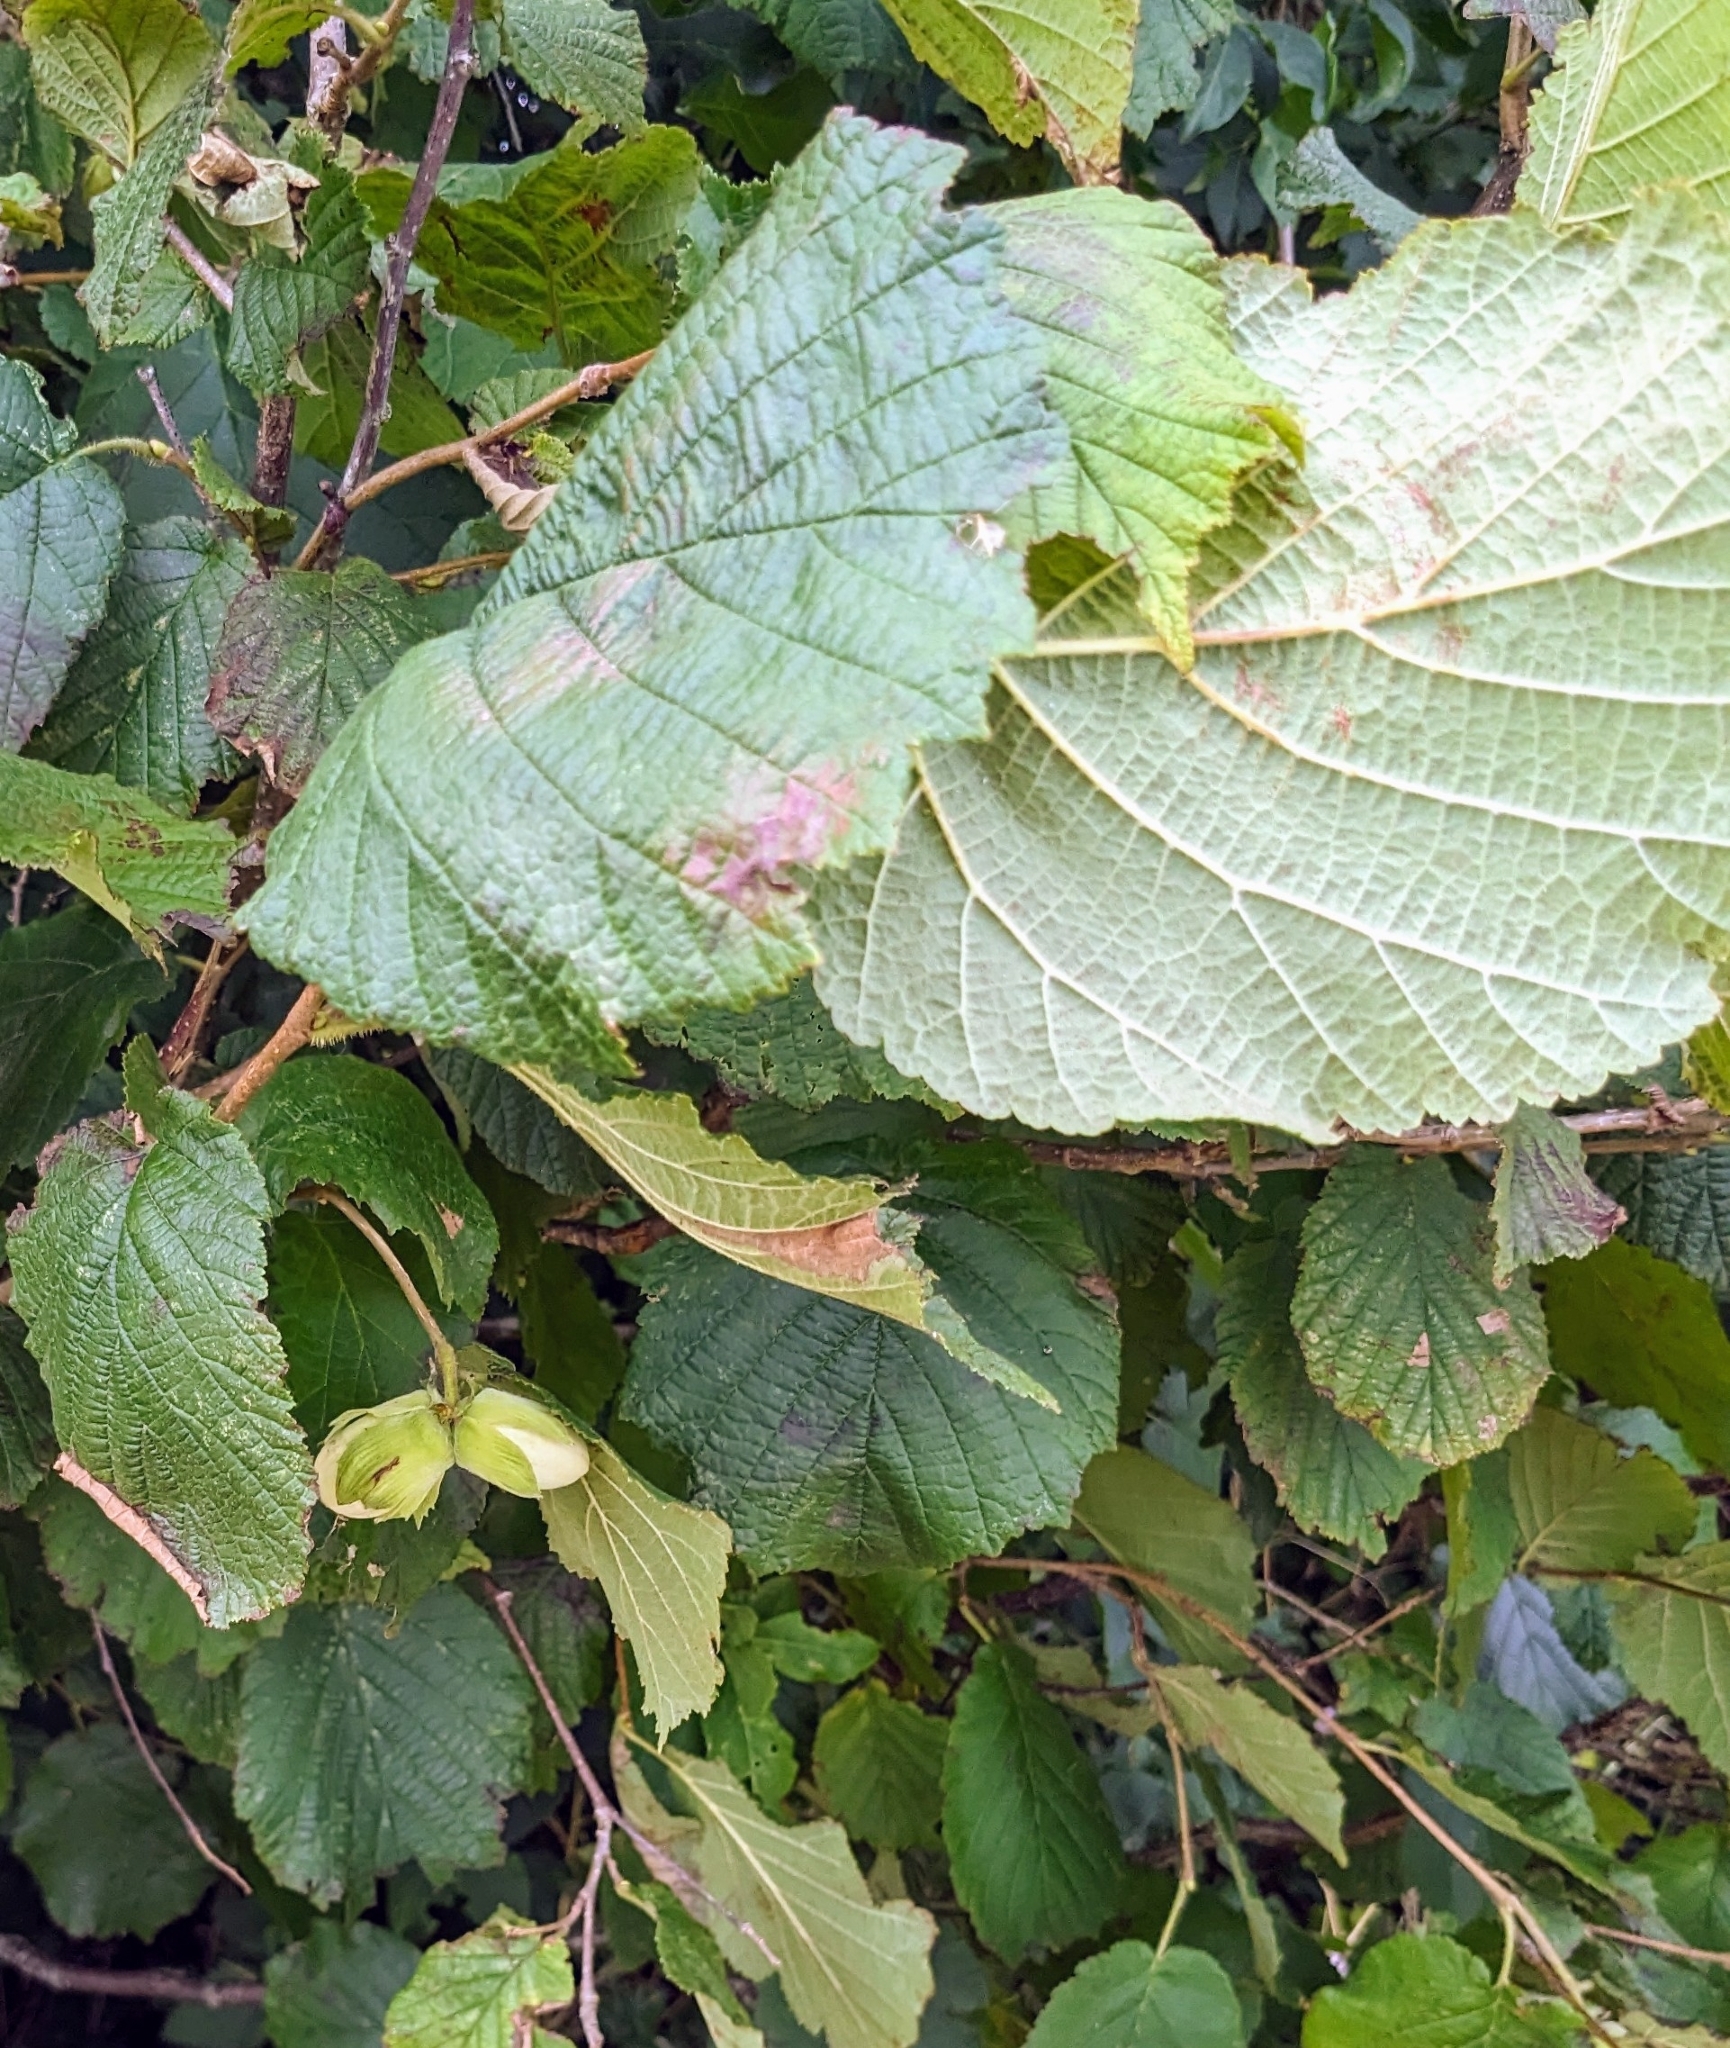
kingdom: Plantae
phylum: Tracheophyta
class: Magnoliopsida
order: Fagales
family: Betulaceae
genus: Corylus
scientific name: Corylus avellana
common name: European hazel
